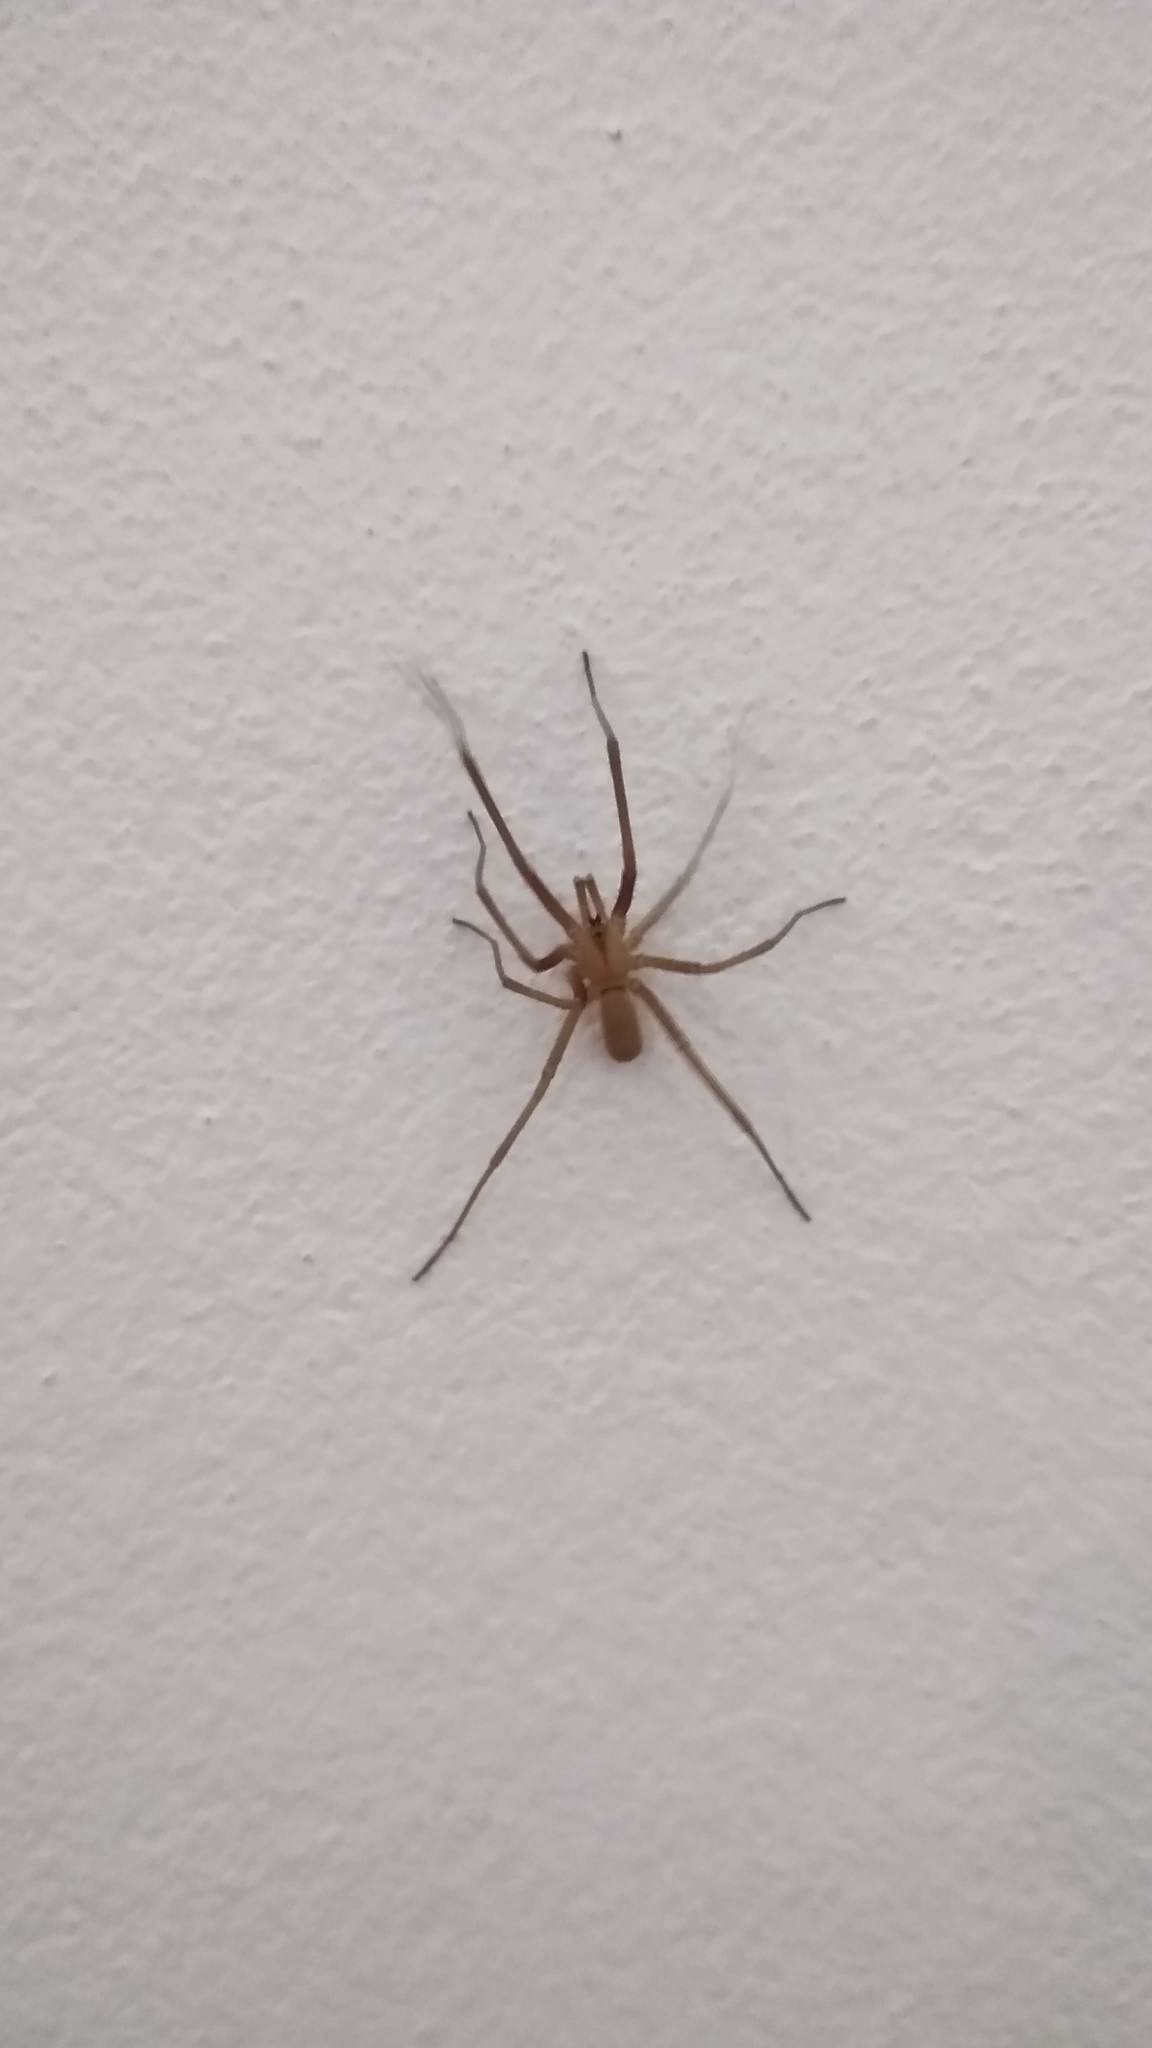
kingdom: Animalia
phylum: Arthropoda
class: Arachnida
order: Araneae
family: Filistatidae
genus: Kukulcania
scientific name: Kukulcania hibernalis
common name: Crevice weaver
